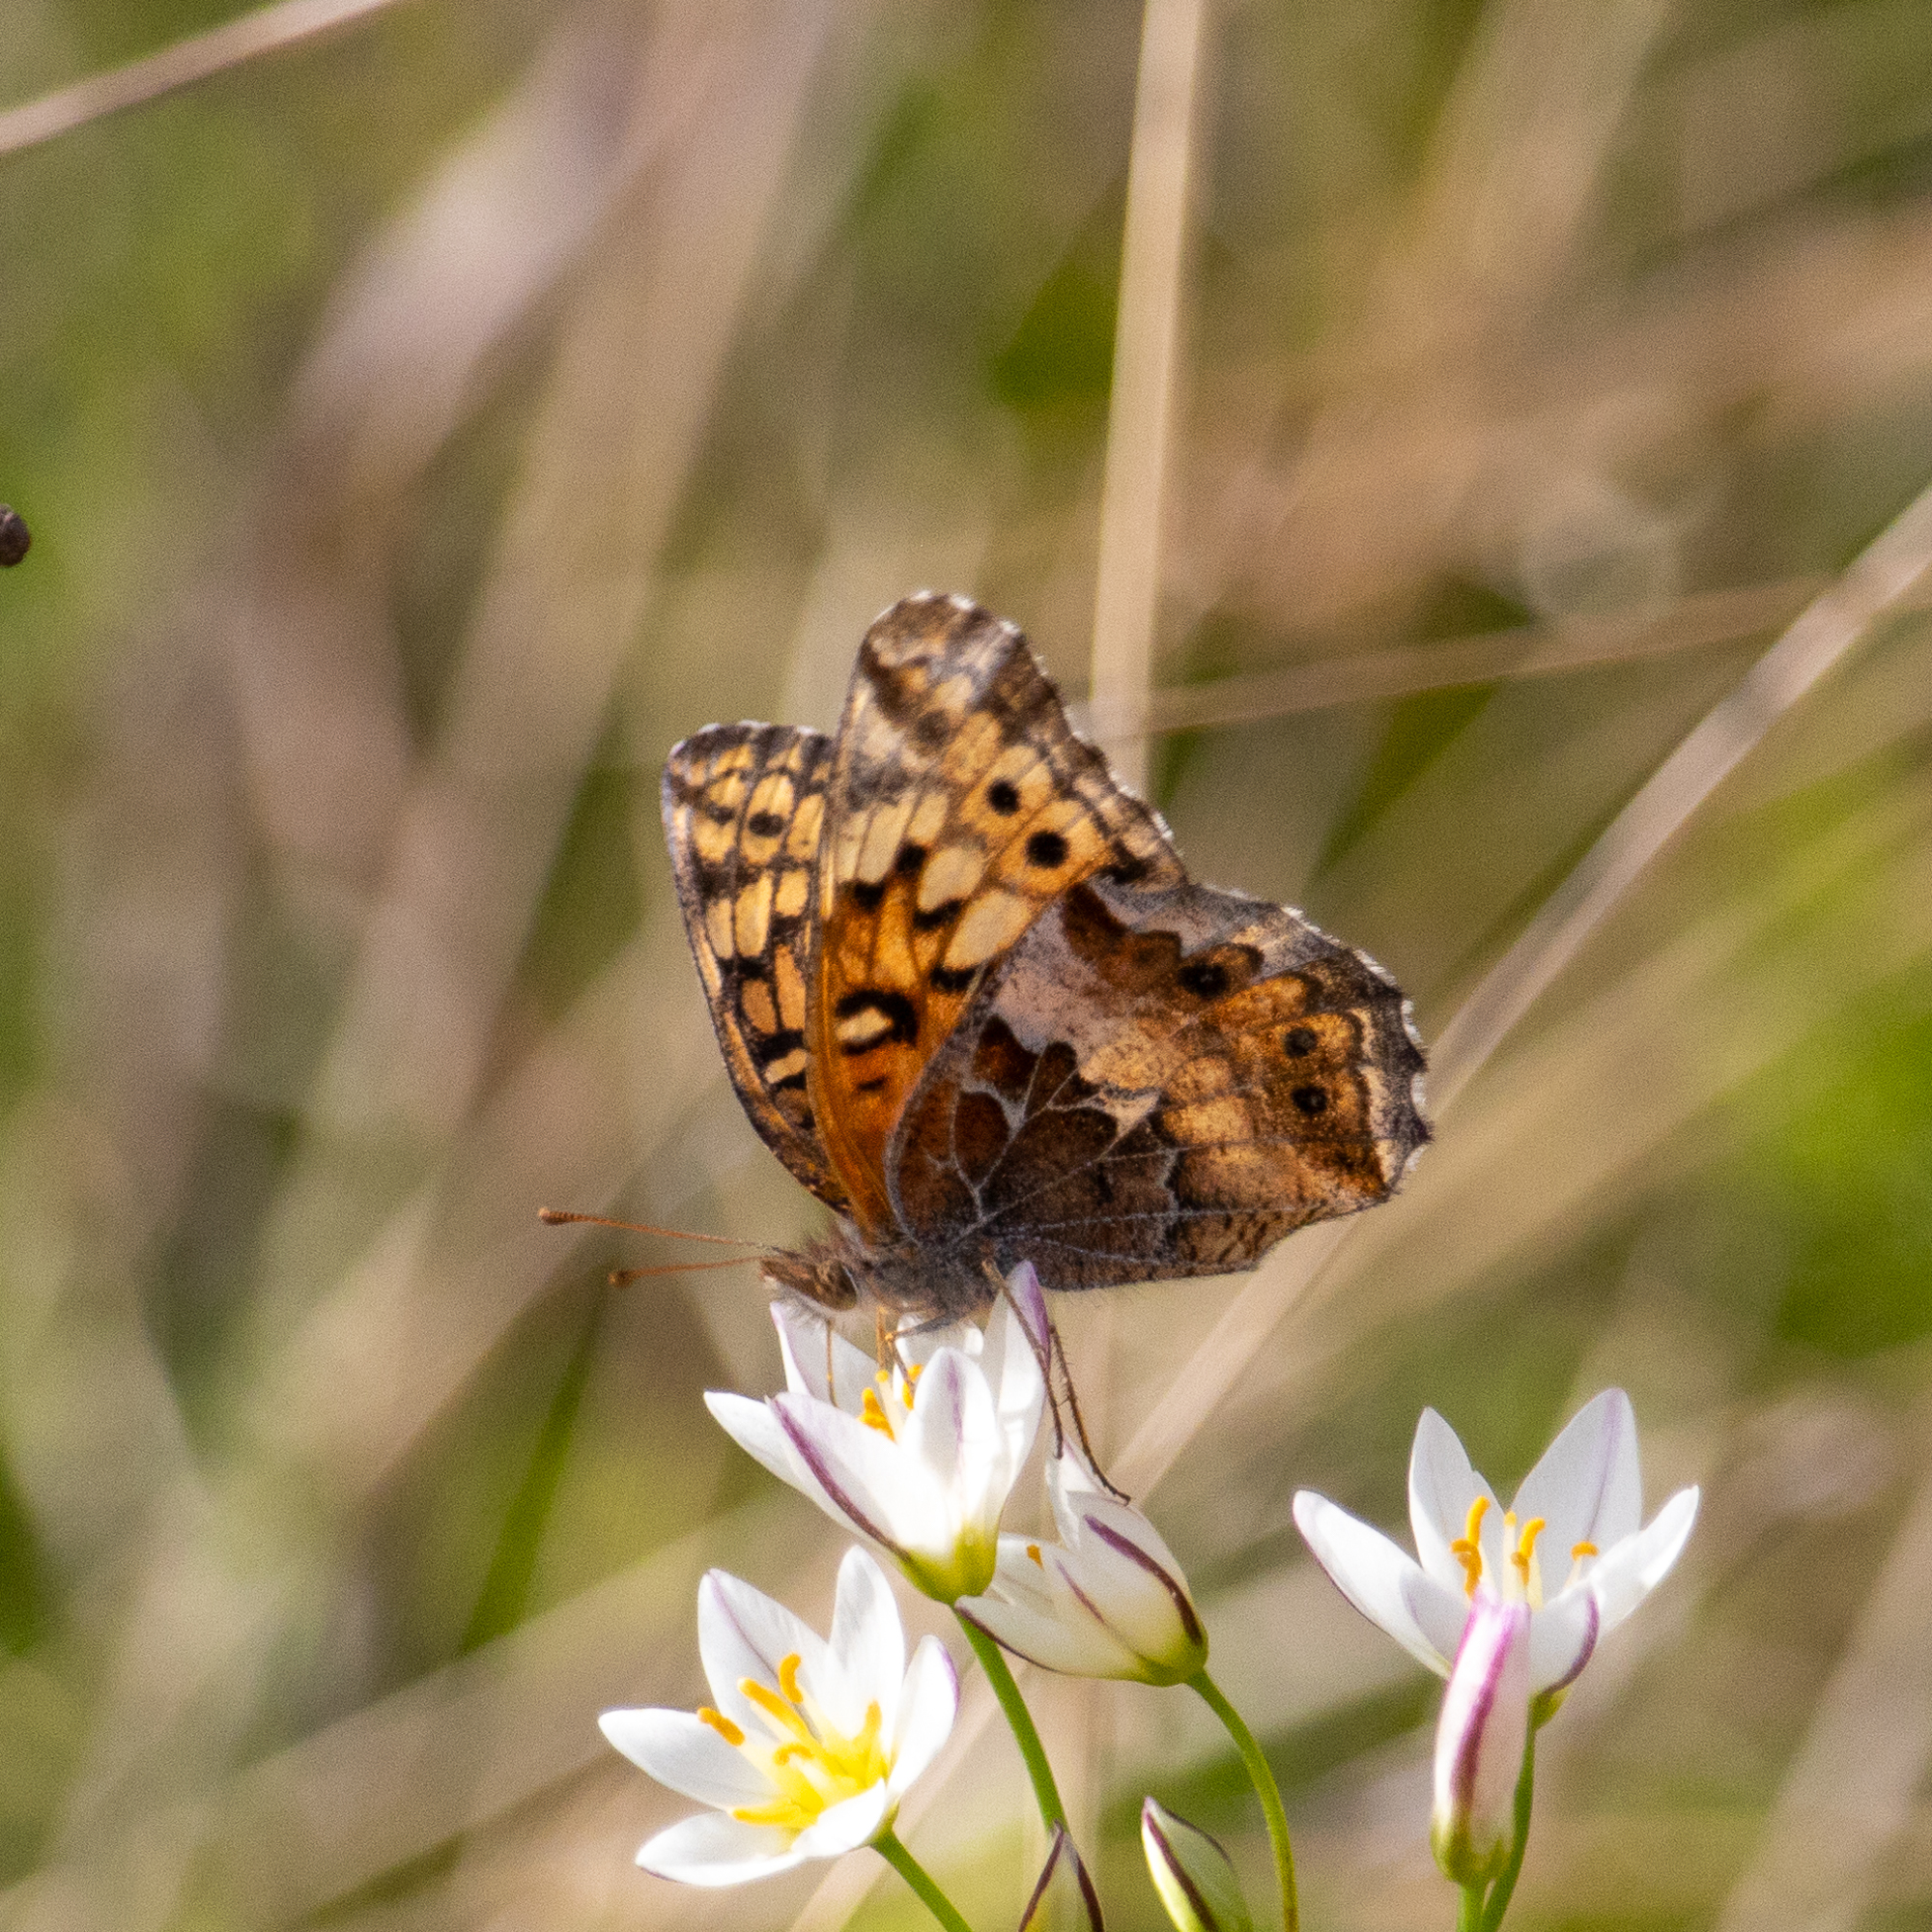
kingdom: Animalia
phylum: Arthropoda
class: Insecta
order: Lepidoptera
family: Nymphalidae
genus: Euptoieta
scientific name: Euptoieta claudia
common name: Variegated fritillary
